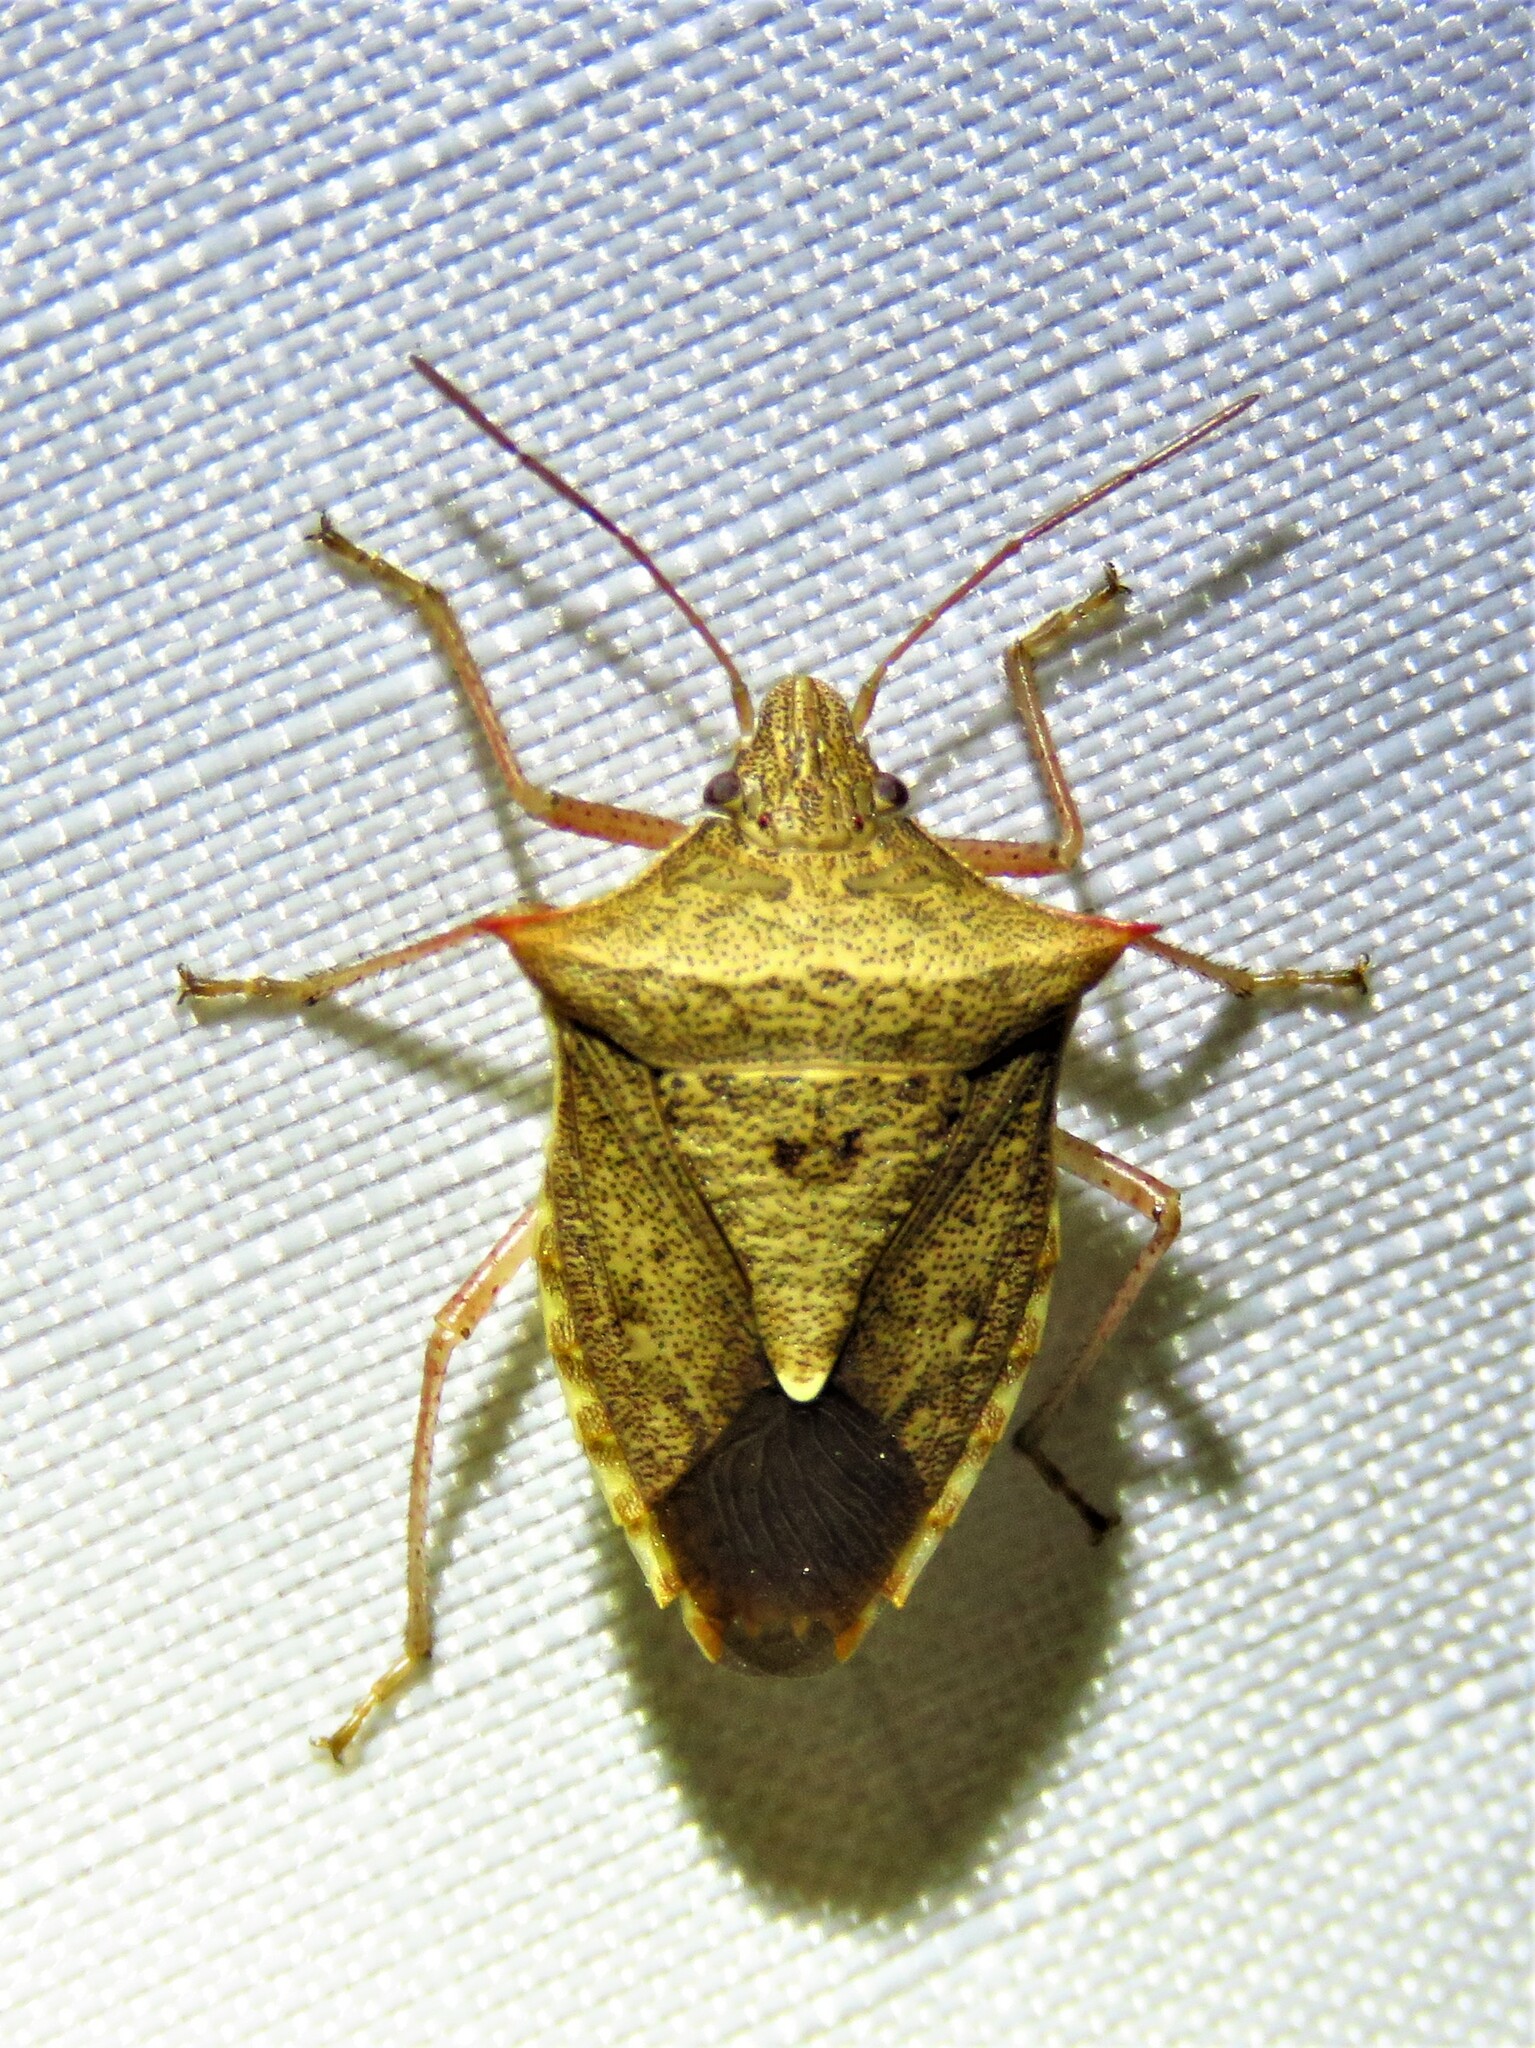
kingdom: Animalia
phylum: Arthropoda
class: Insecta
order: Hemiptera
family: Pentatomidae
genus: Euschistus
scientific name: Euschistus ictericus
